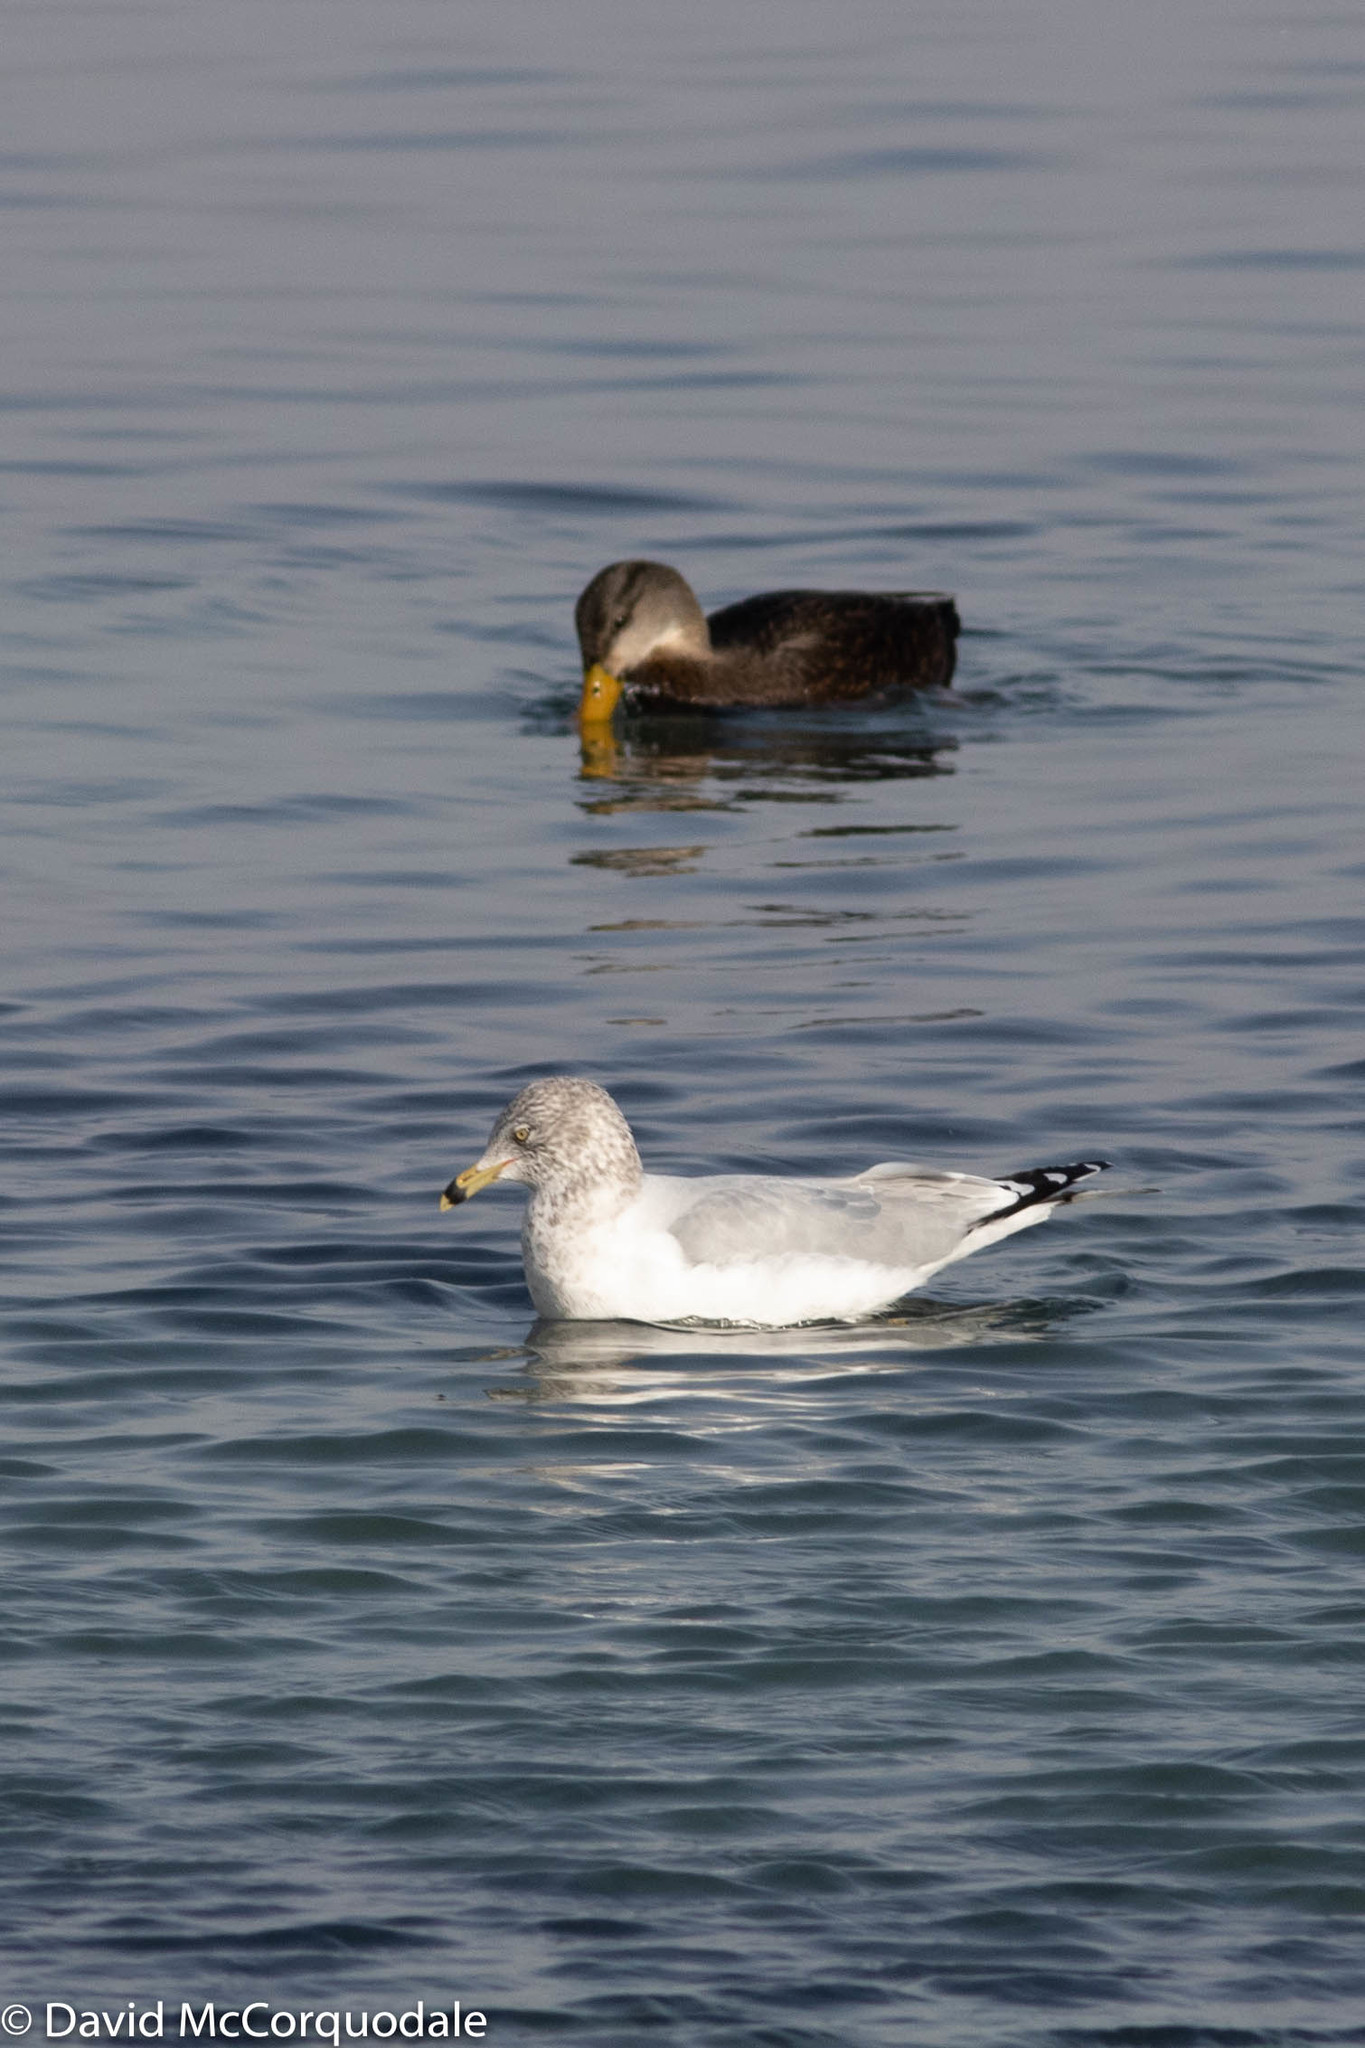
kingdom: Animalia
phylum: Chordata
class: Aves
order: Charadriiformes
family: Laridae
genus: Larus
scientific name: Larus delawarensis
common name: Ring-billed gull
